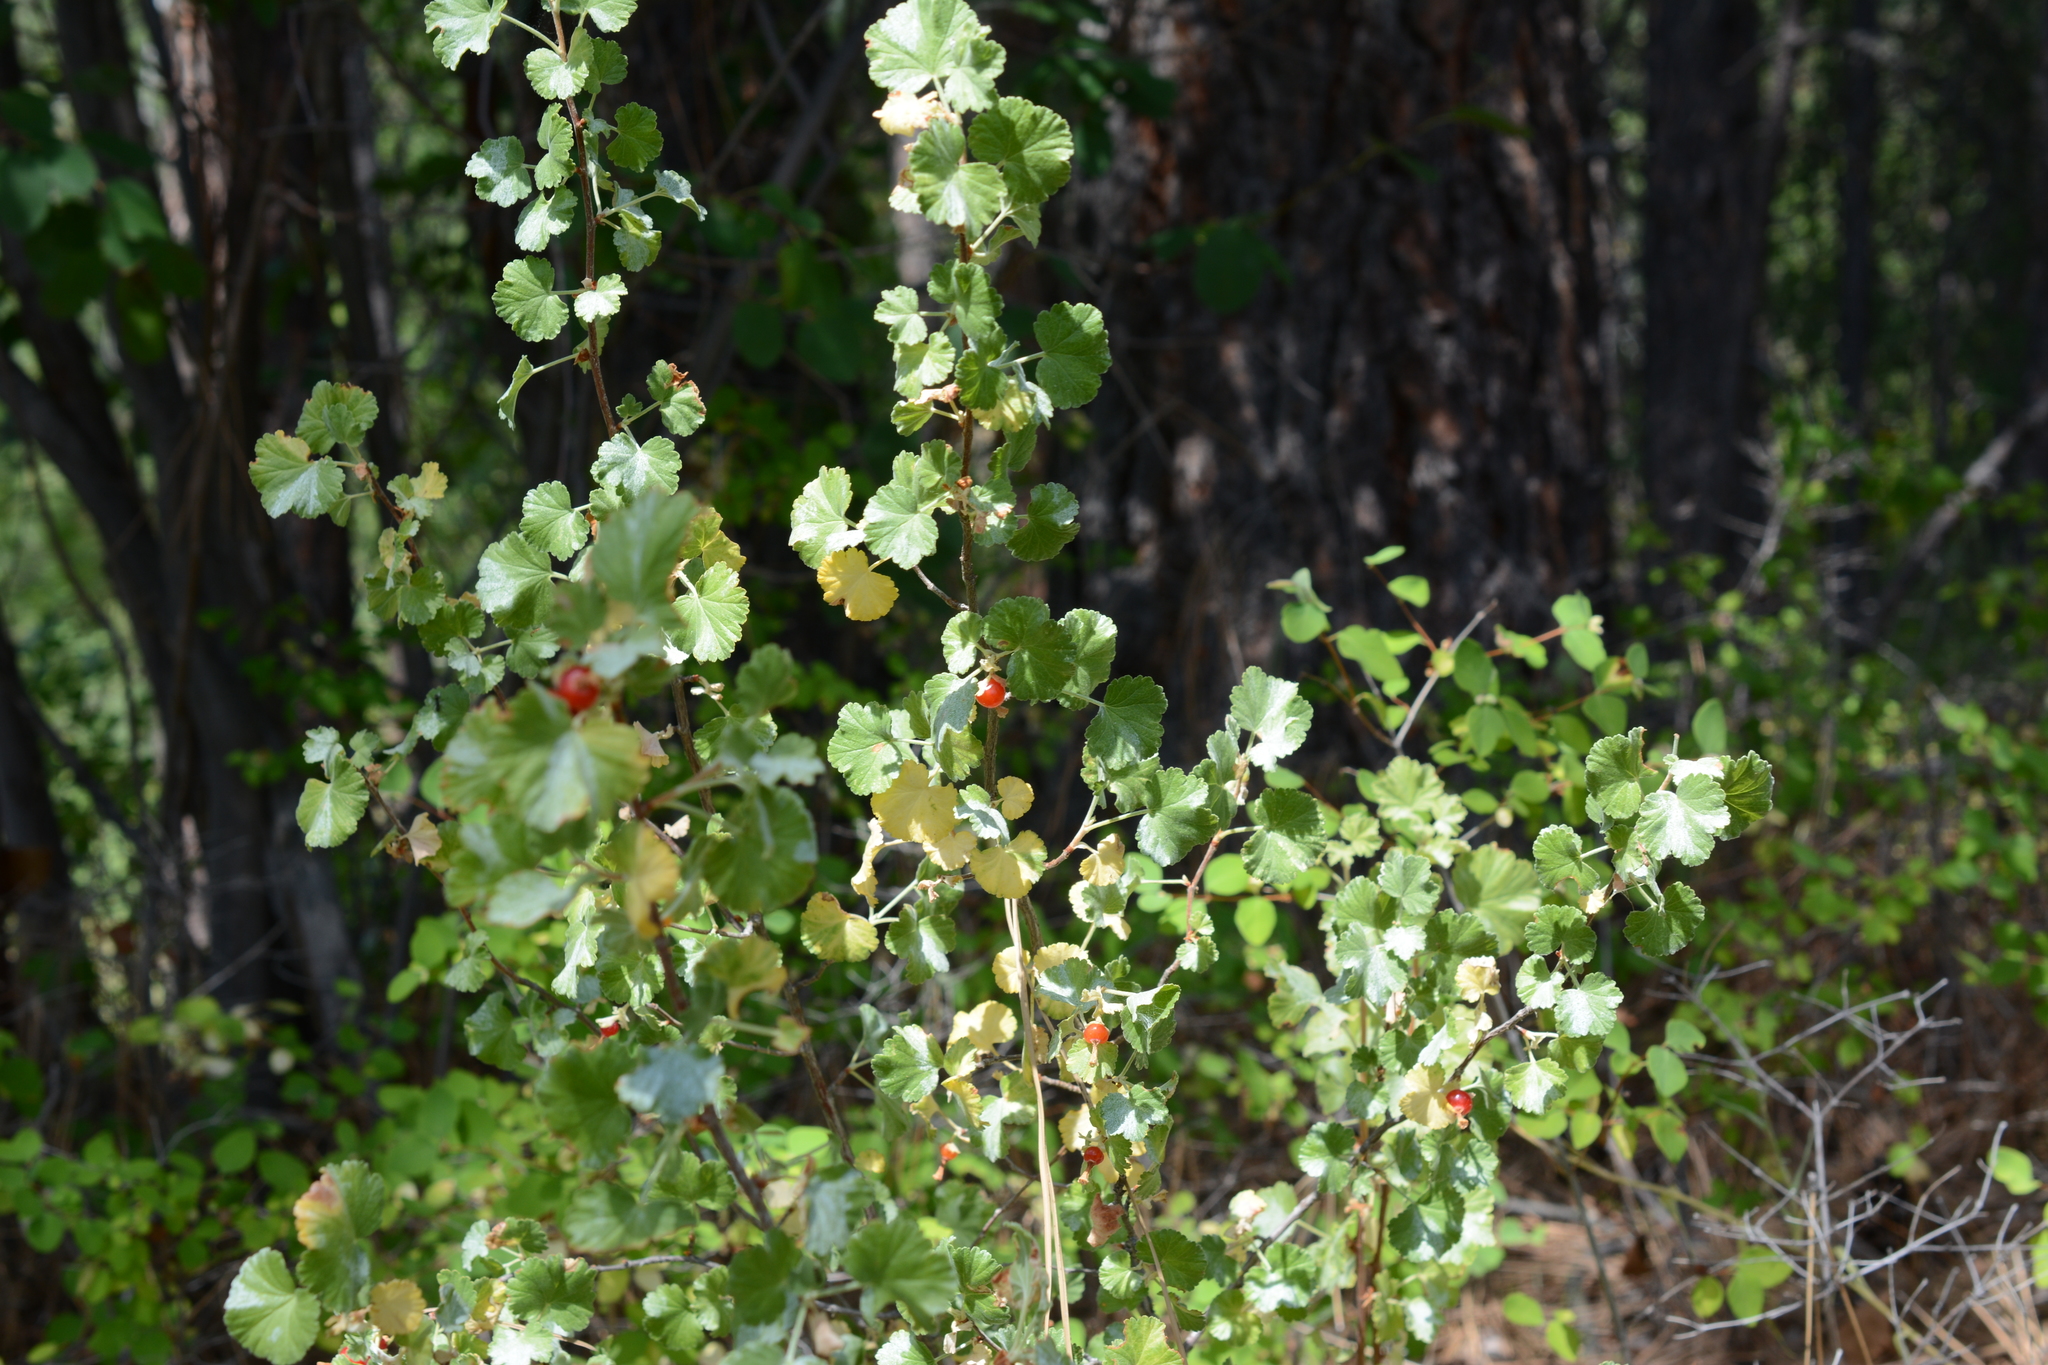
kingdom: Plantae
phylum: Tracheophyta
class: Magnoliopsida
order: Saxifragales
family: Grossulariaceae
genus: Ribes
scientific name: Ribes cereum
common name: Wax currant
